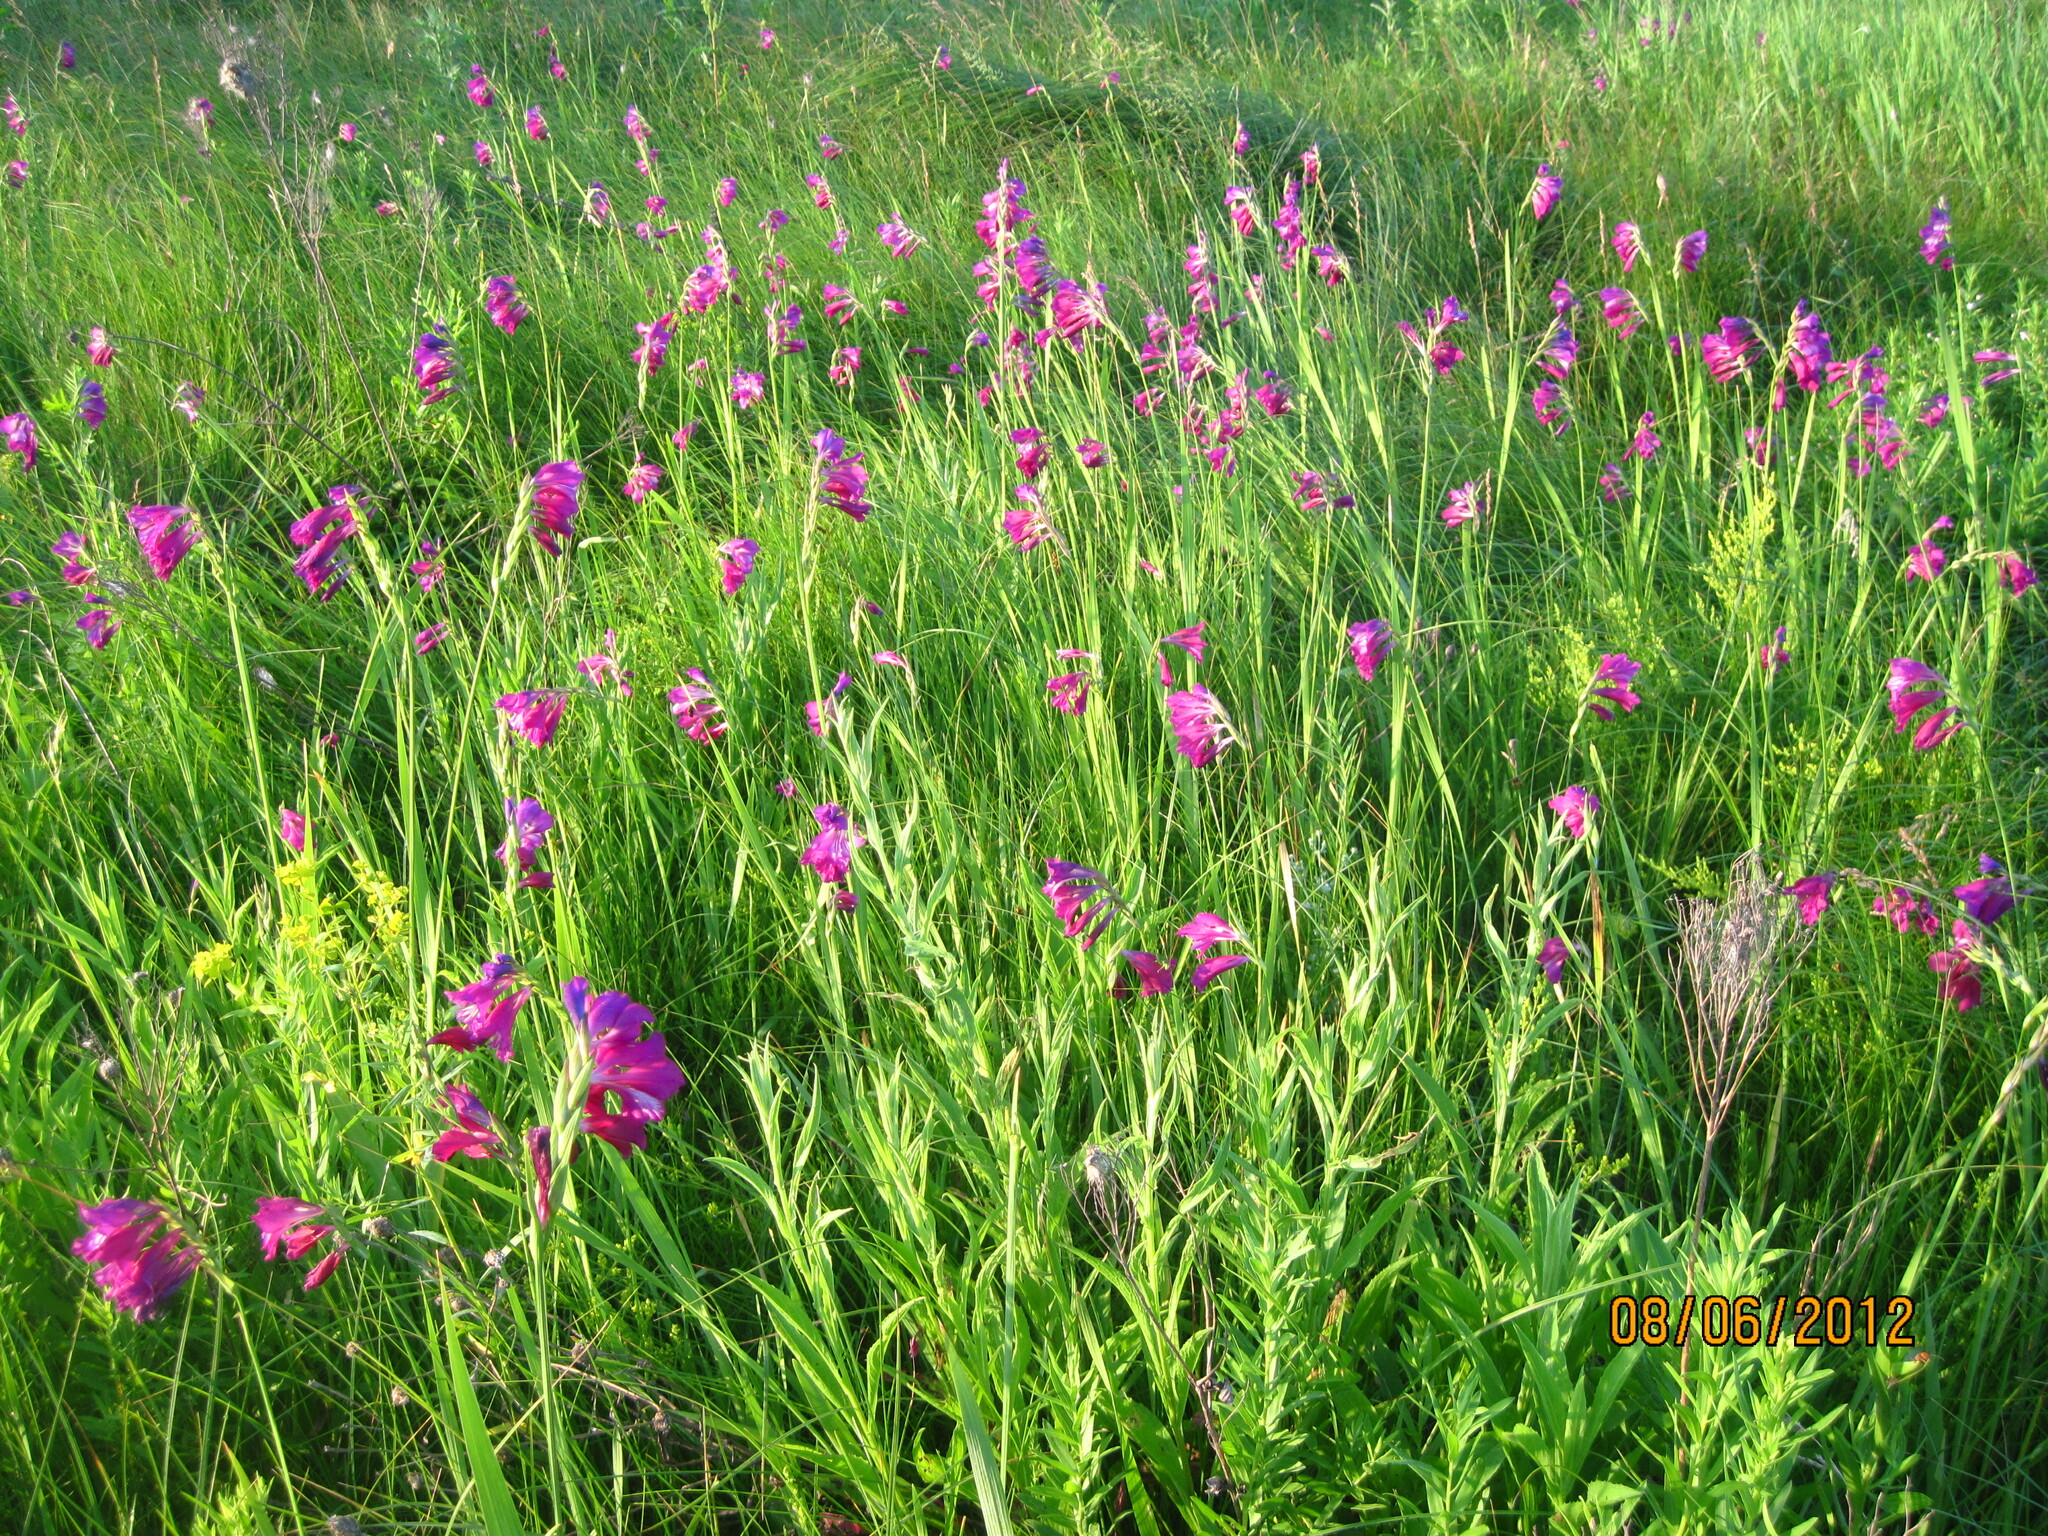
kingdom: Plantae
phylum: Tracheophyta
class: Liliopsida
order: Asparagales
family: Iridaceae
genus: Gladiolus
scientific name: Gladiolus tenuis
